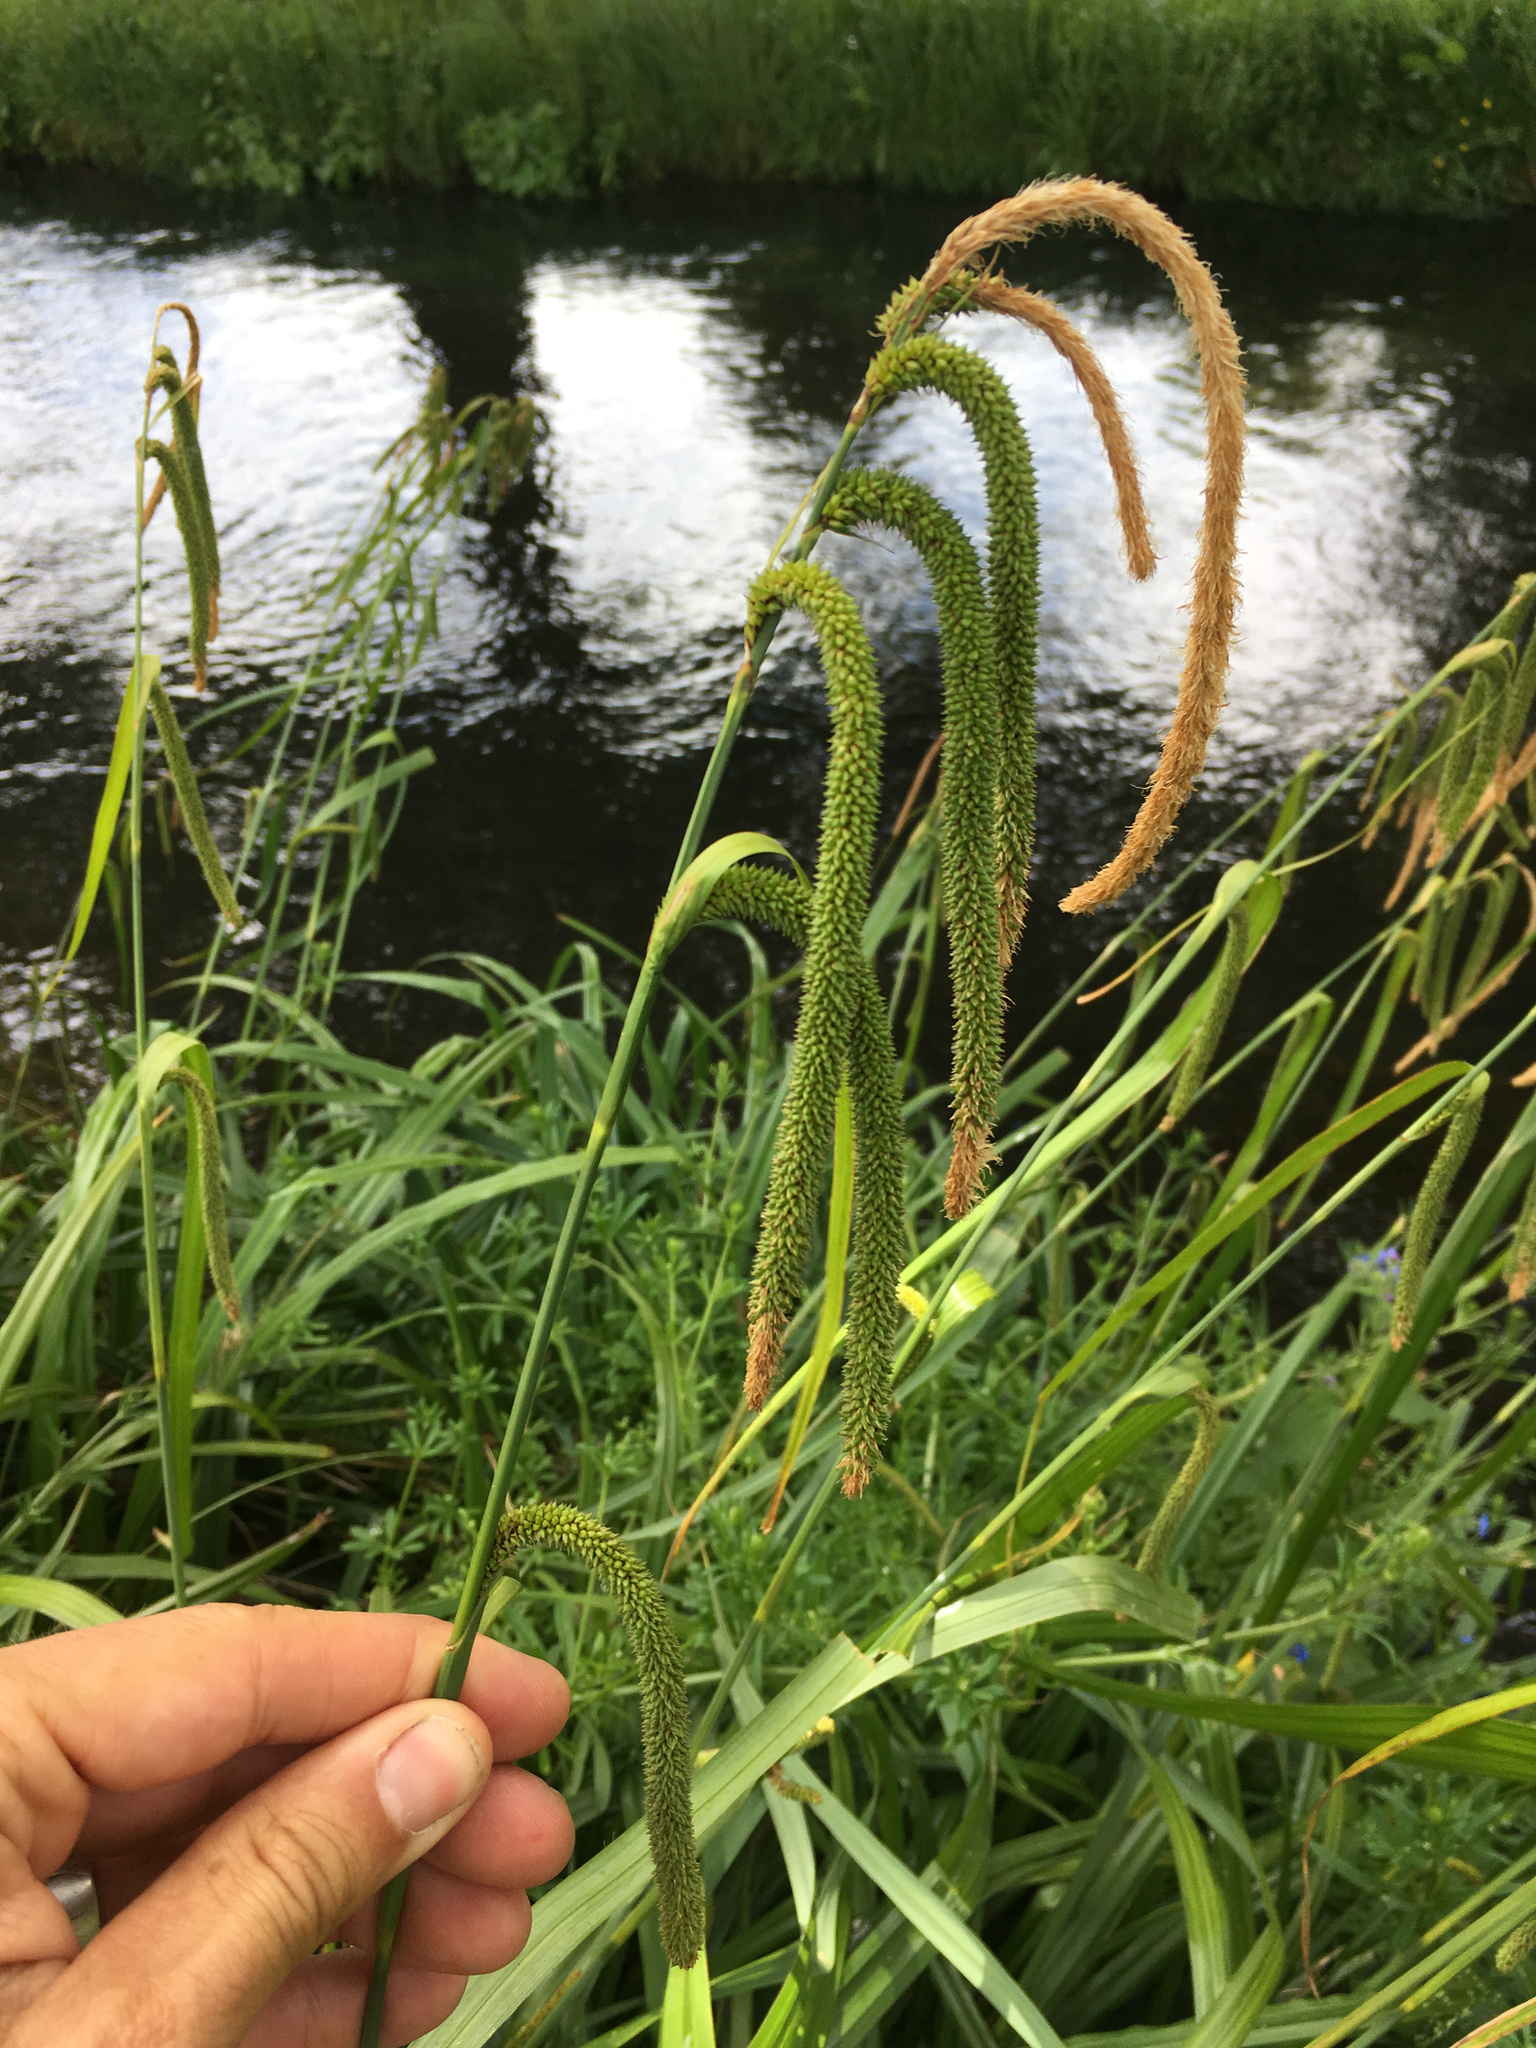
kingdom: Plantae
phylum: Tracheophyta
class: Liliopsida
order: Poales
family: Cyperaceae
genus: Carex
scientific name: Carex pendula
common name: Pendulous sedge
